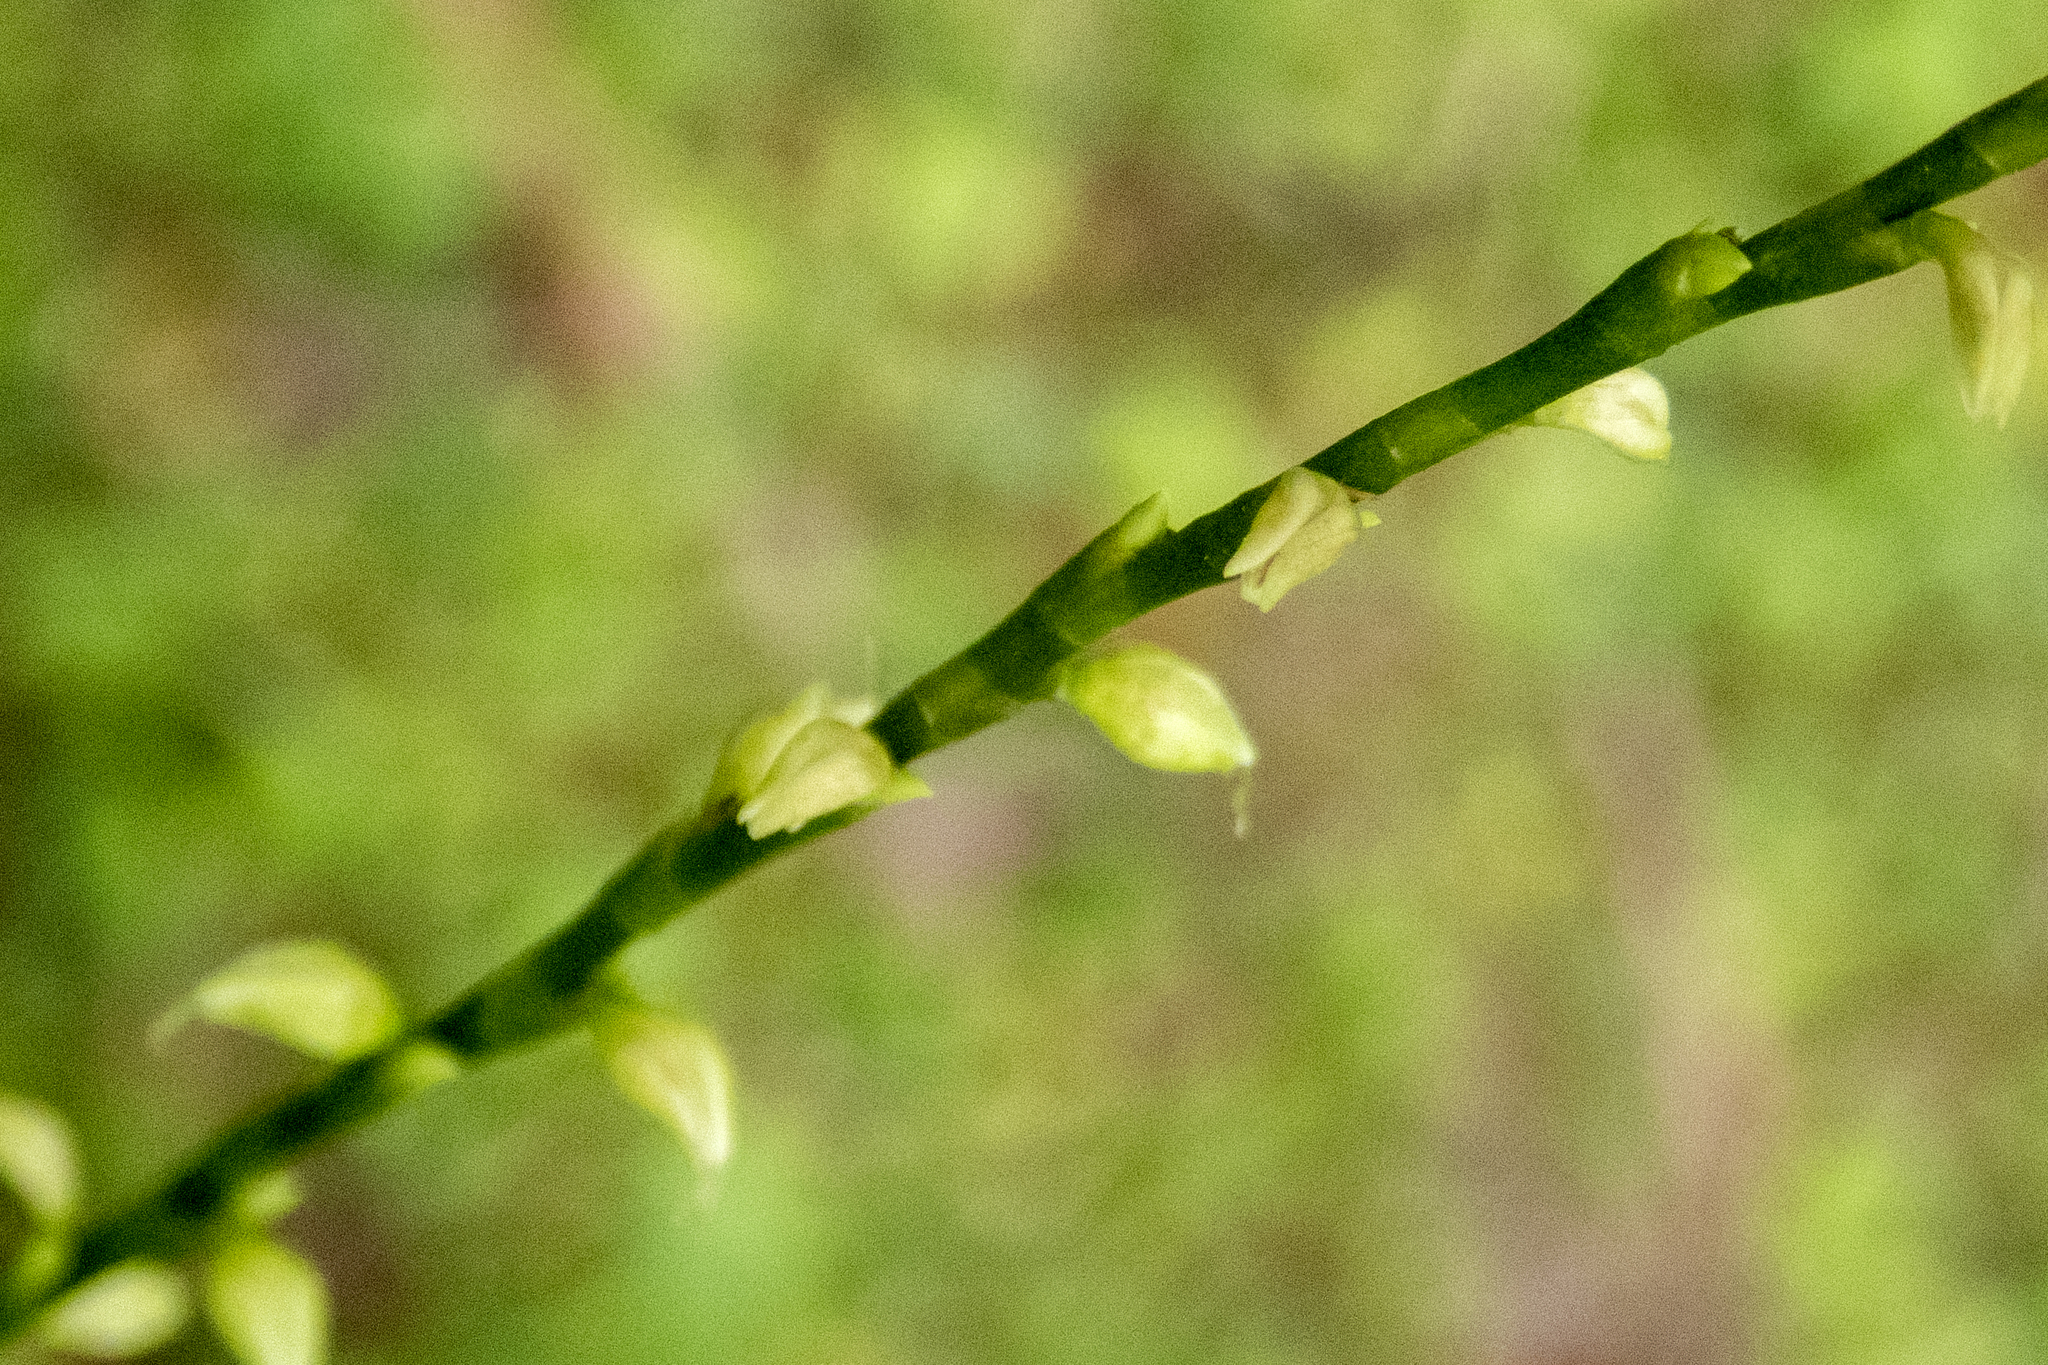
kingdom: Plantae
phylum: Tracheophyta
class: Magnoliopsida
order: Caryophyllales
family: Polygonaceae
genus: Persicaria
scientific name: Persicaria virginiana
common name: Jumpseed
